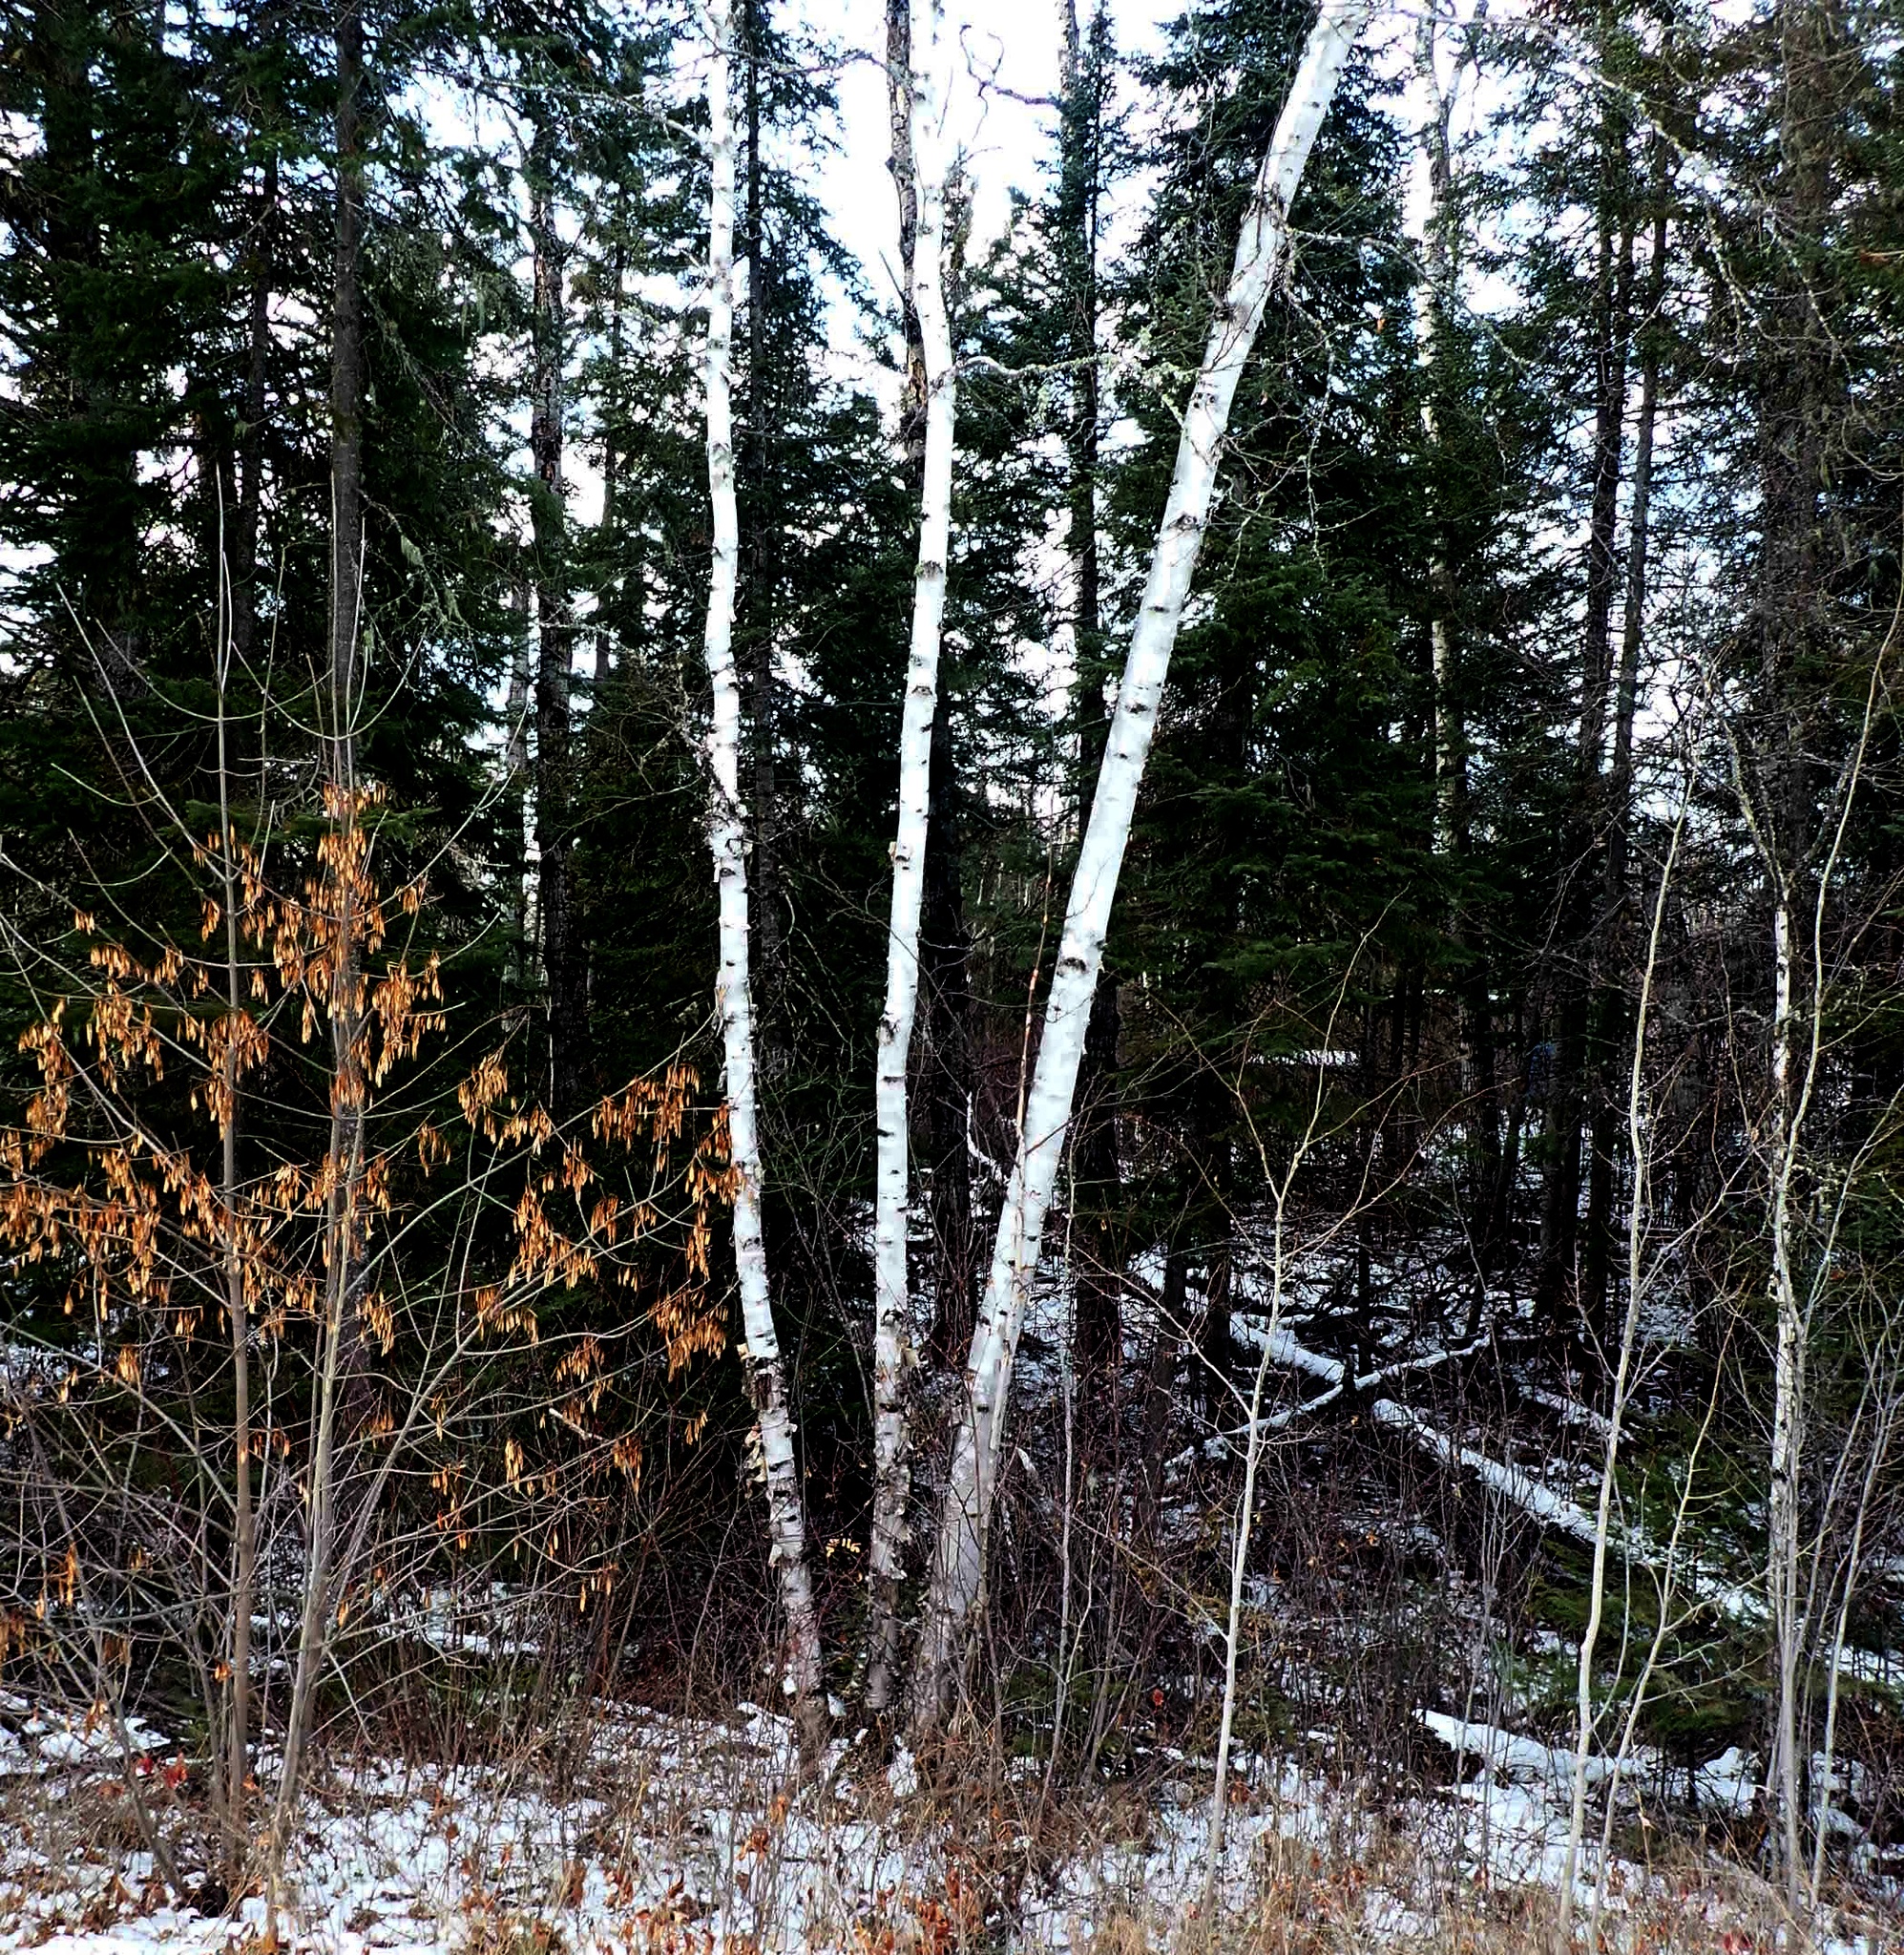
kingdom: Plantae
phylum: Tracheophyta
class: Magnoliopsida
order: Fagales
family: Betulaceae
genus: Betula
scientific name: Betula papyrifera
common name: Paper birch
